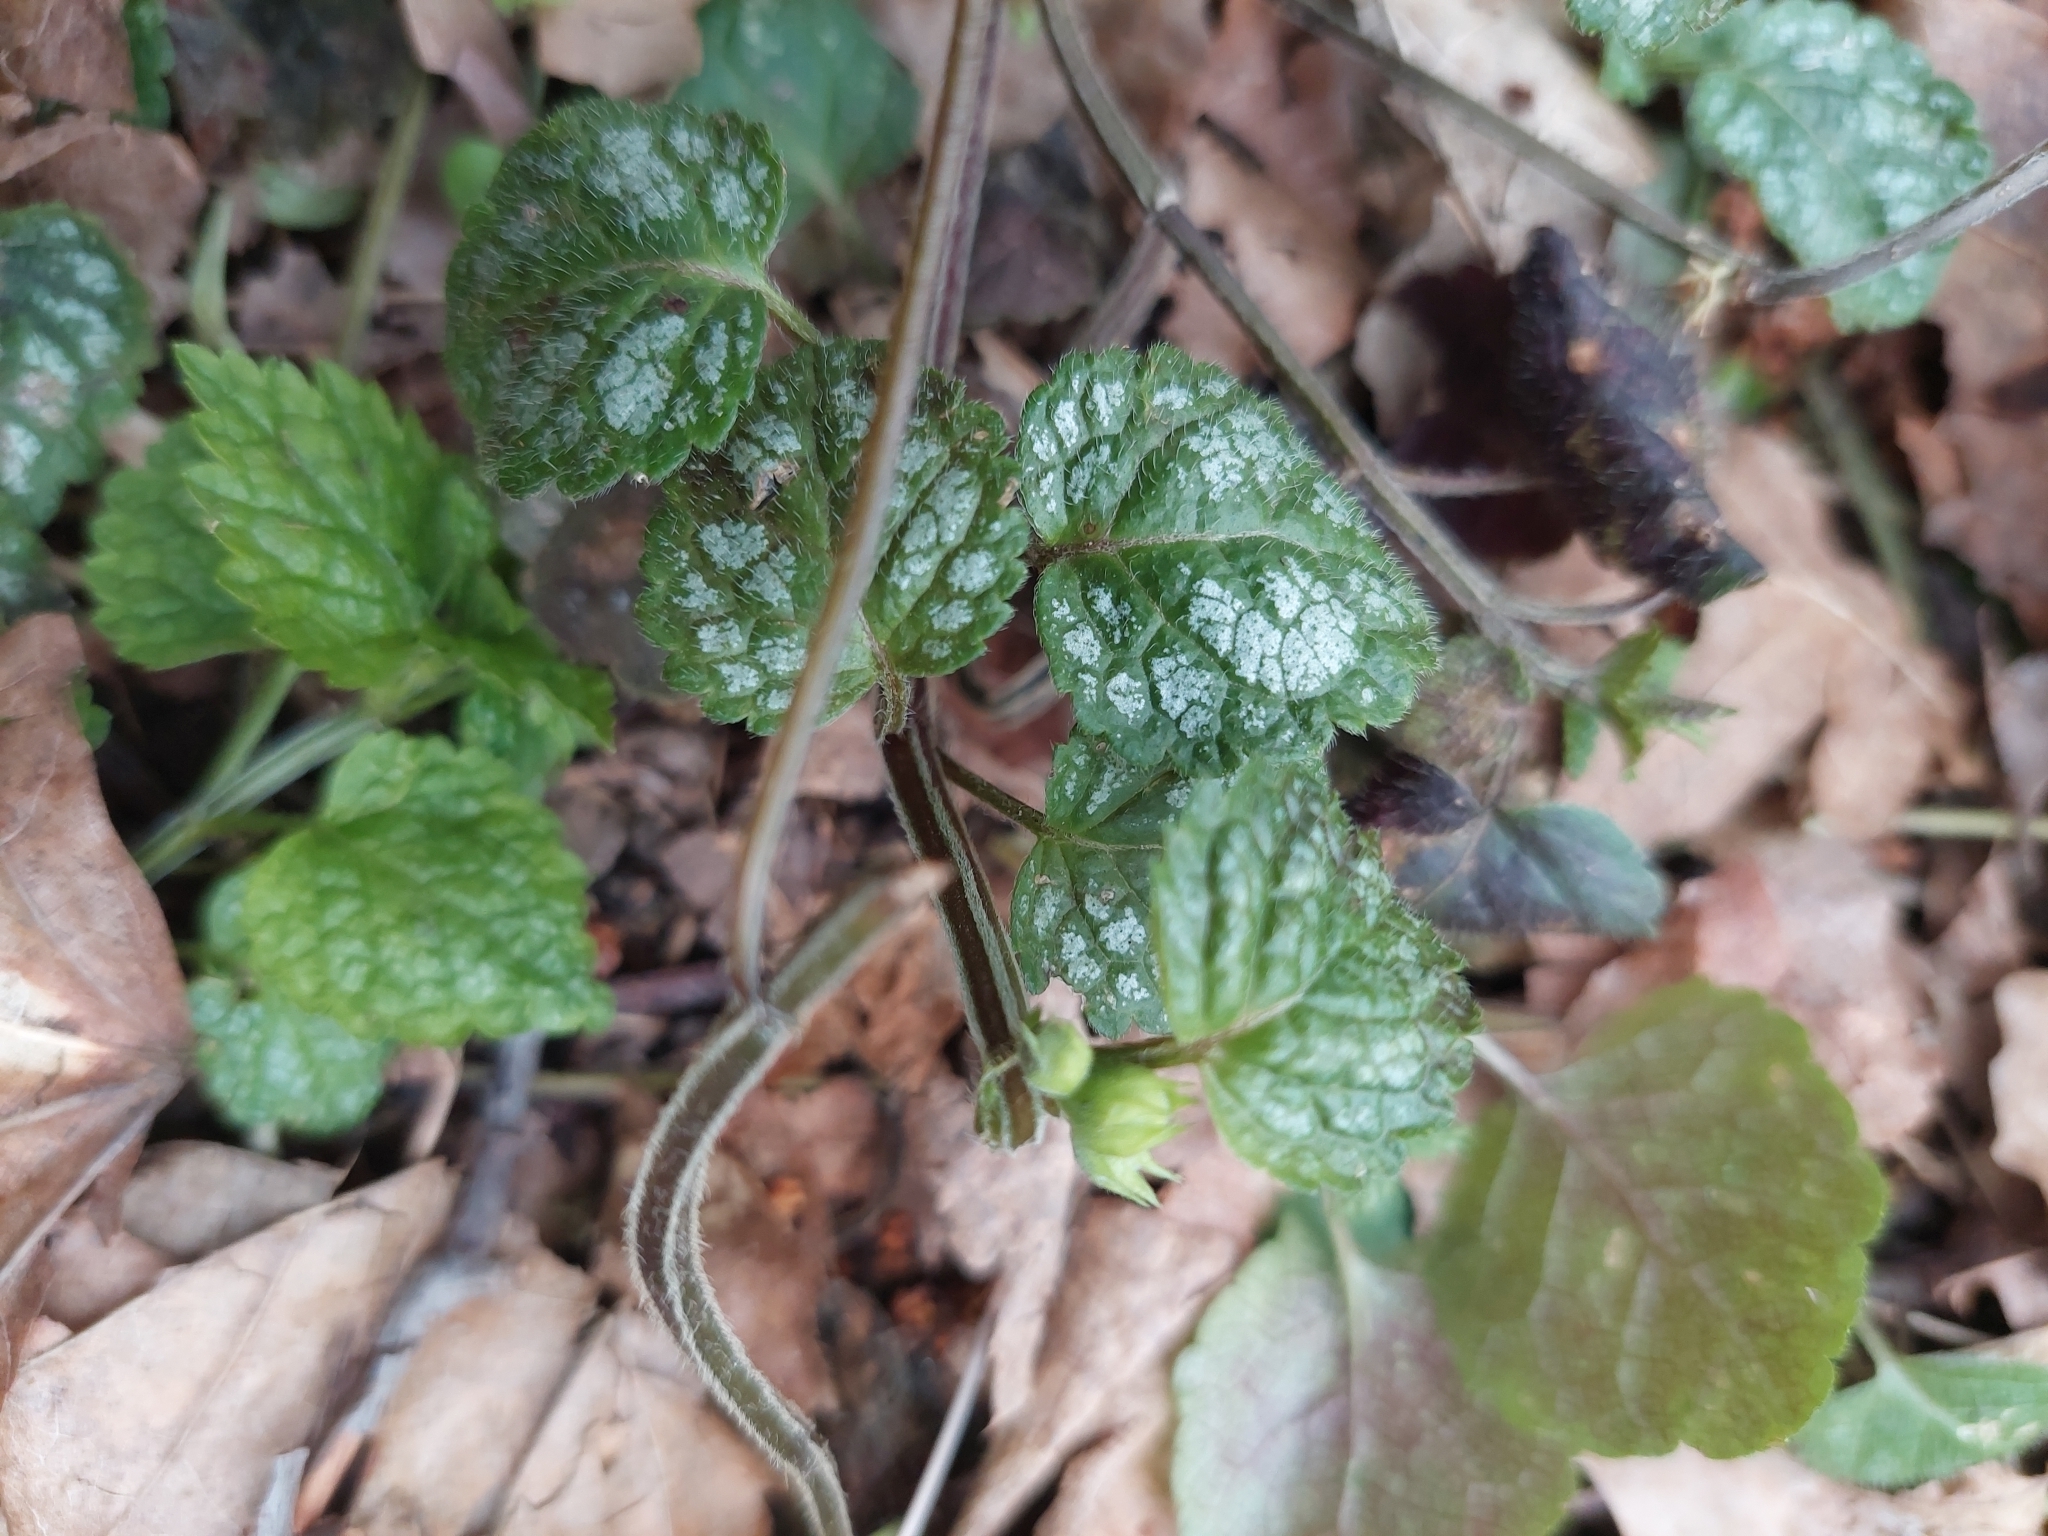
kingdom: Plantae
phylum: Tracheophyta
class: Magnoliopsida
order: Lamiales
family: Lamiaceae
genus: Lamium
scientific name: Lamium galeobdolon
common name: Yellow archangel
